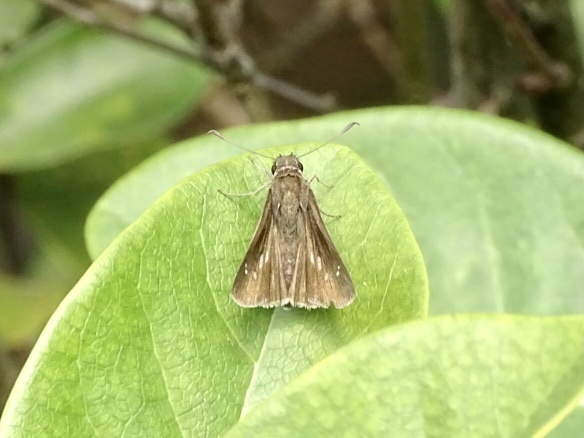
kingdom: Animalia
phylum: Arthropoda
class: Insecta
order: Lepidoptera
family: Hesperiidae
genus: Borbo
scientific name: Borbo cinnara
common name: Formosan swift
